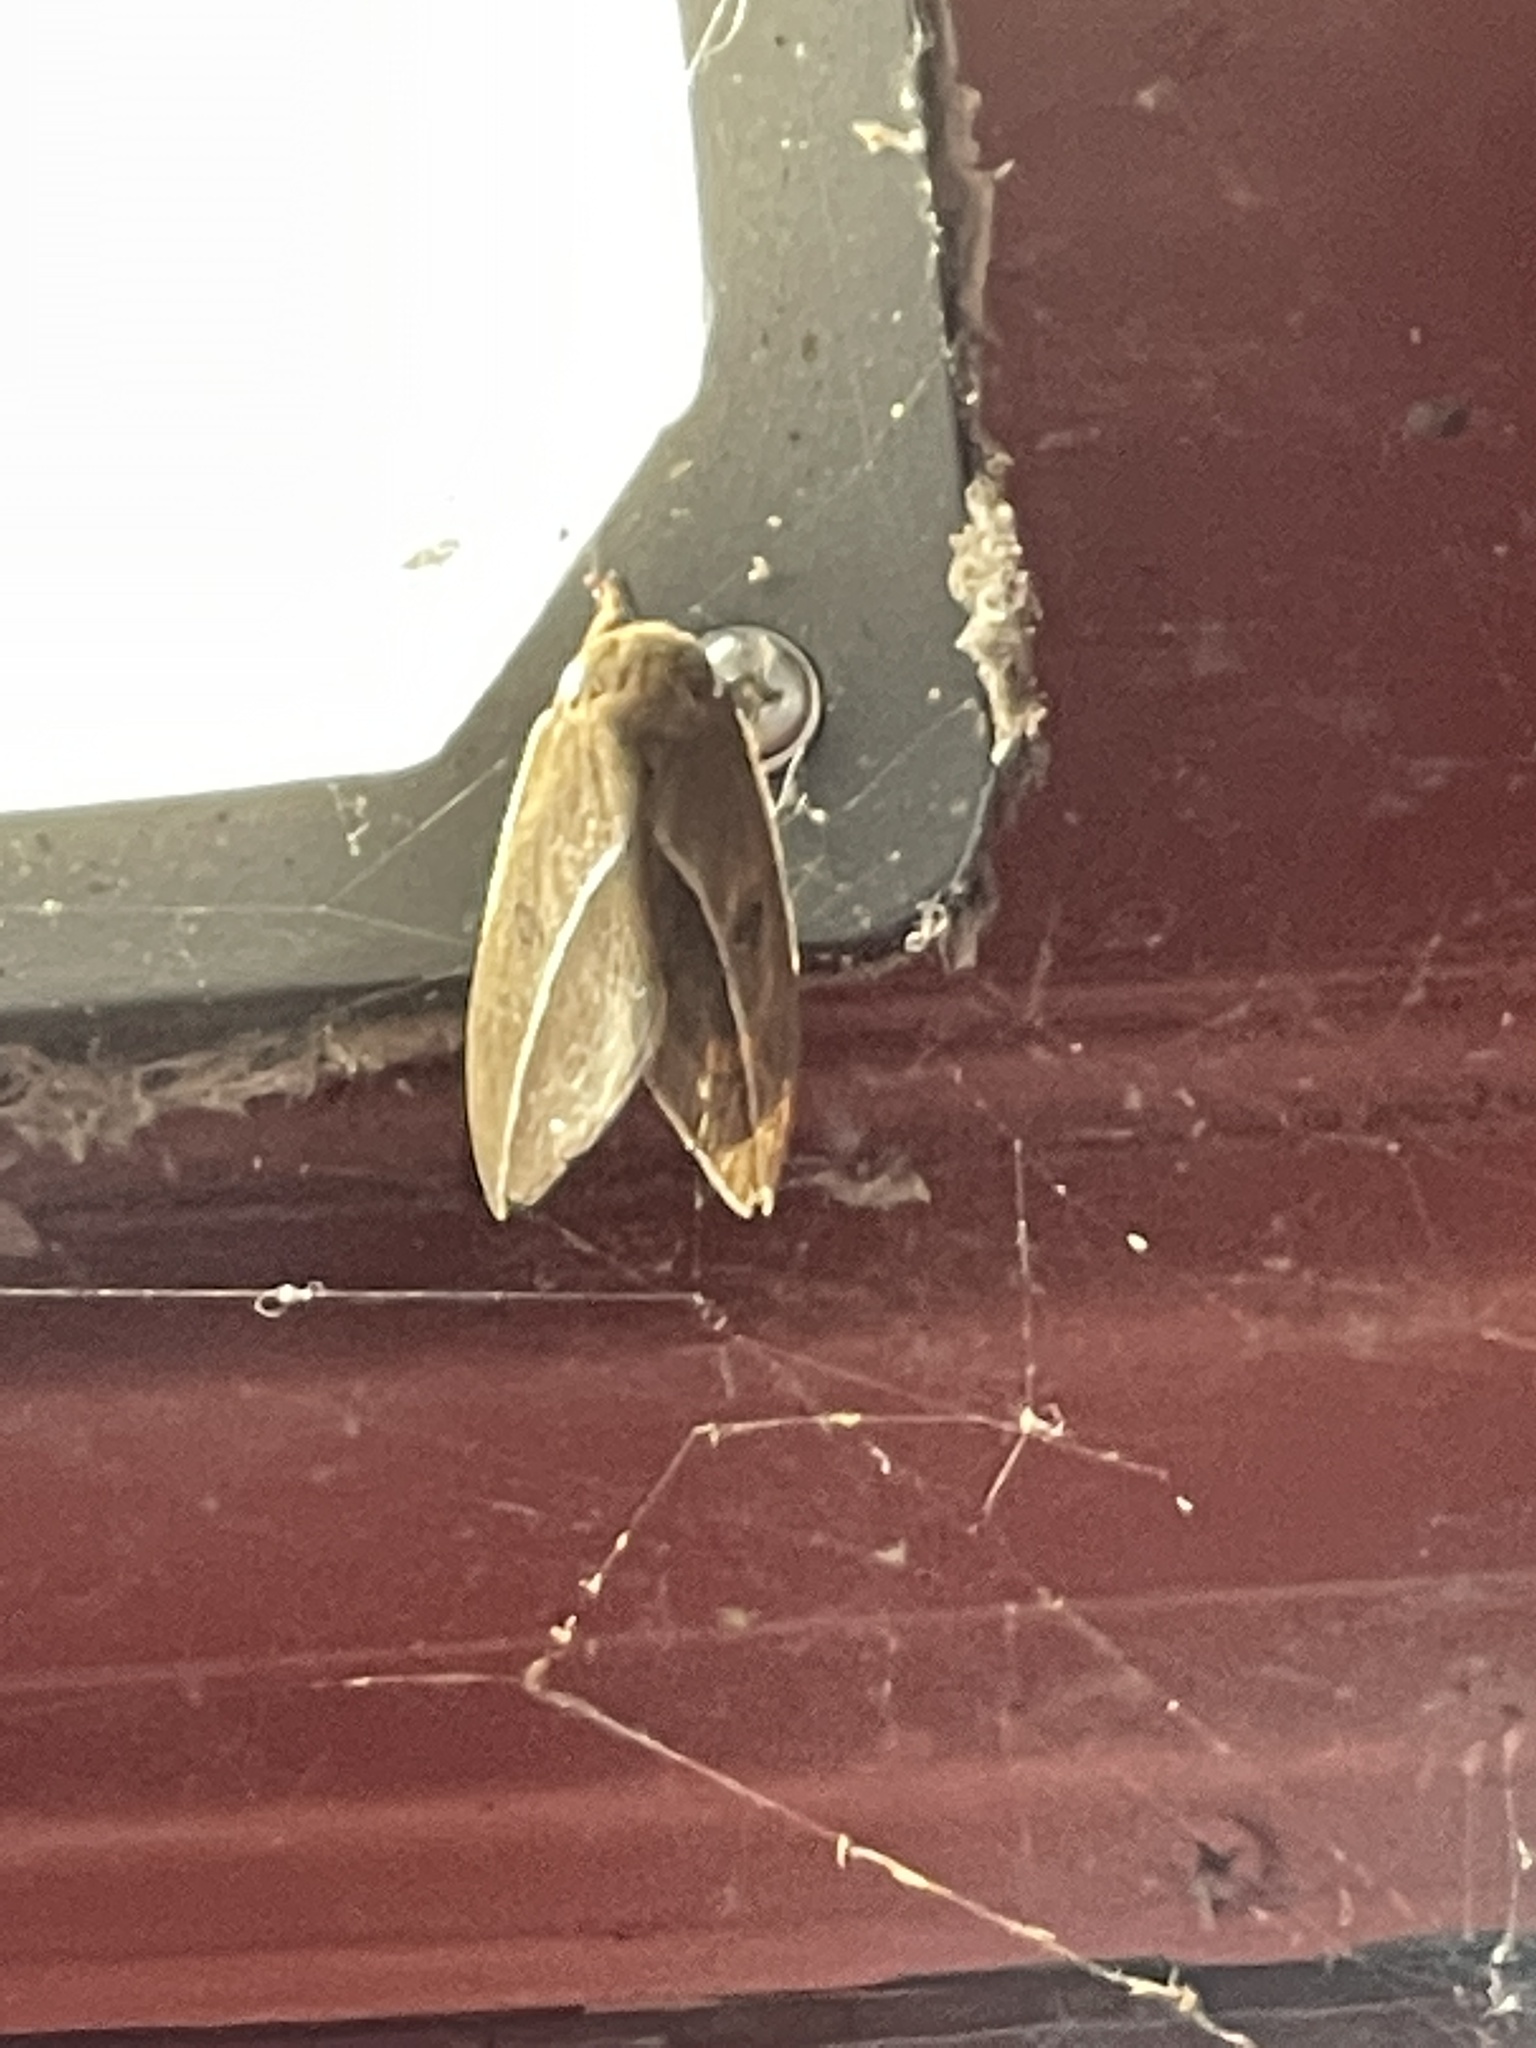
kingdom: Animalia
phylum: Arthropoda
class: Insecta
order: Lepidoptera
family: Saturniidae
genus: Automeris
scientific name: Automeris zephyria
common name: Zephyr eyed silkmoth
